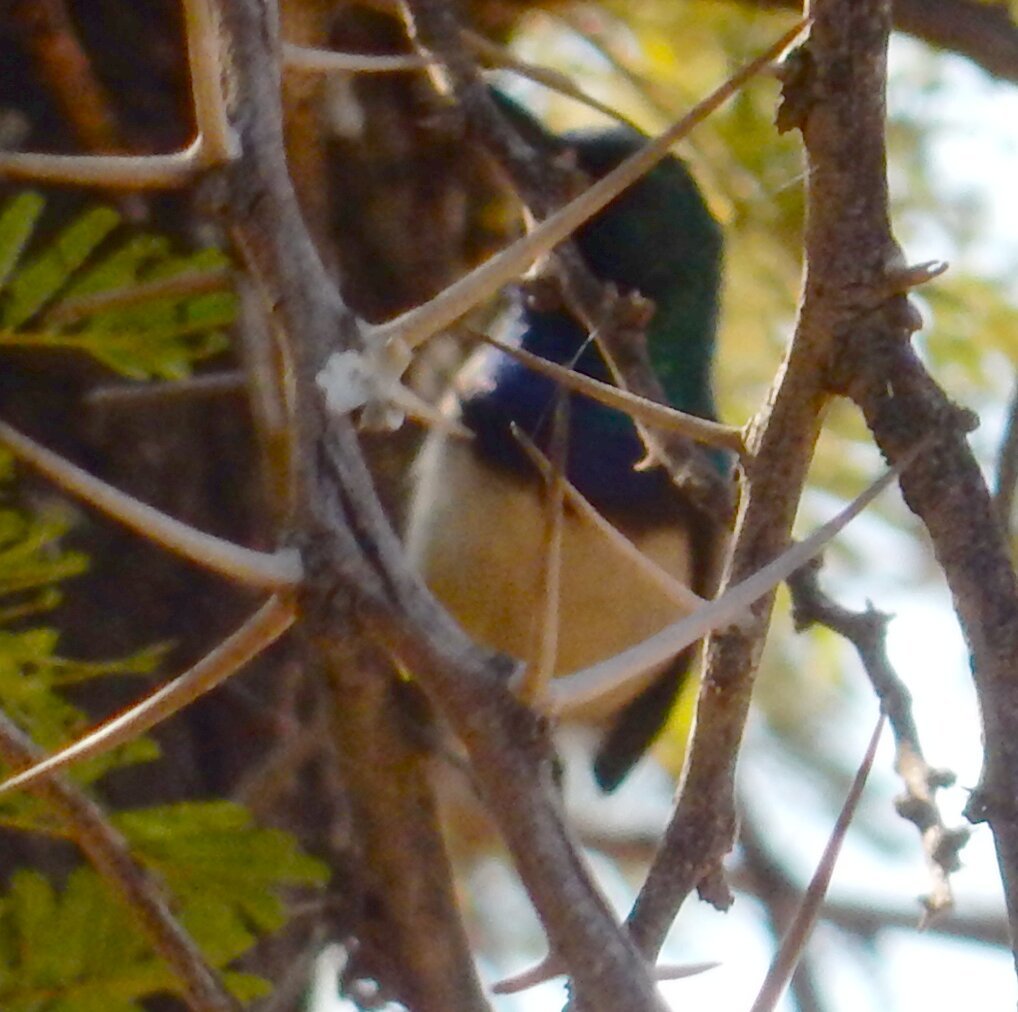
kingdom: Animalia
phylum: Chordata
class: Aves
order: Passeriformes
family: Nectariniidae
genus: Cinnyris
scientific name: Cinnyris talatala
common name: White-bellied sunbird
